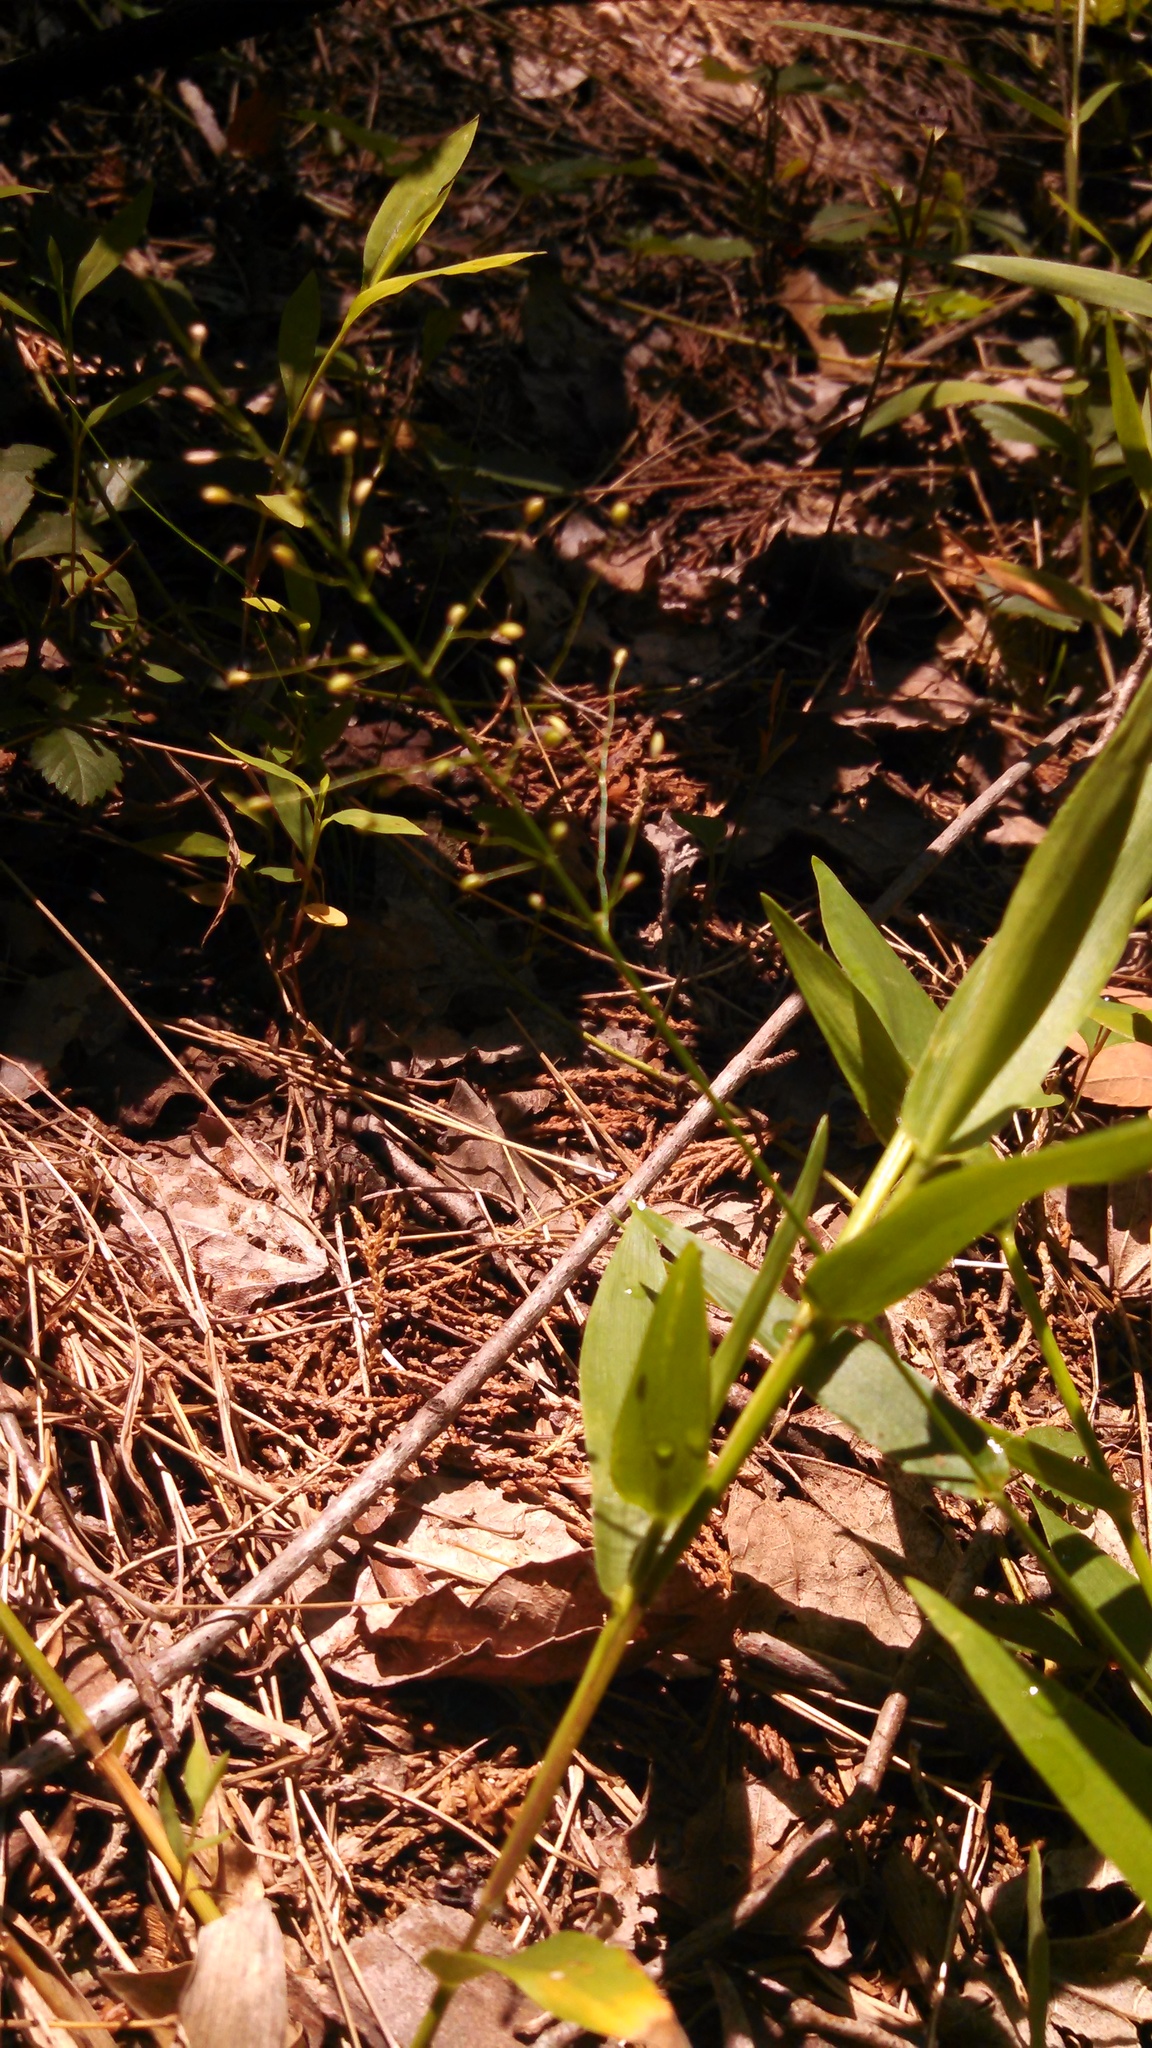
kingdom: Plantae
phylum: Tracheophyta
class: Liliopsida
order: Poales
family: Poaceae
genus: Dichanthelium
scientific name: Dichanthelium clandestinum
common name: Deer-tongue grass
